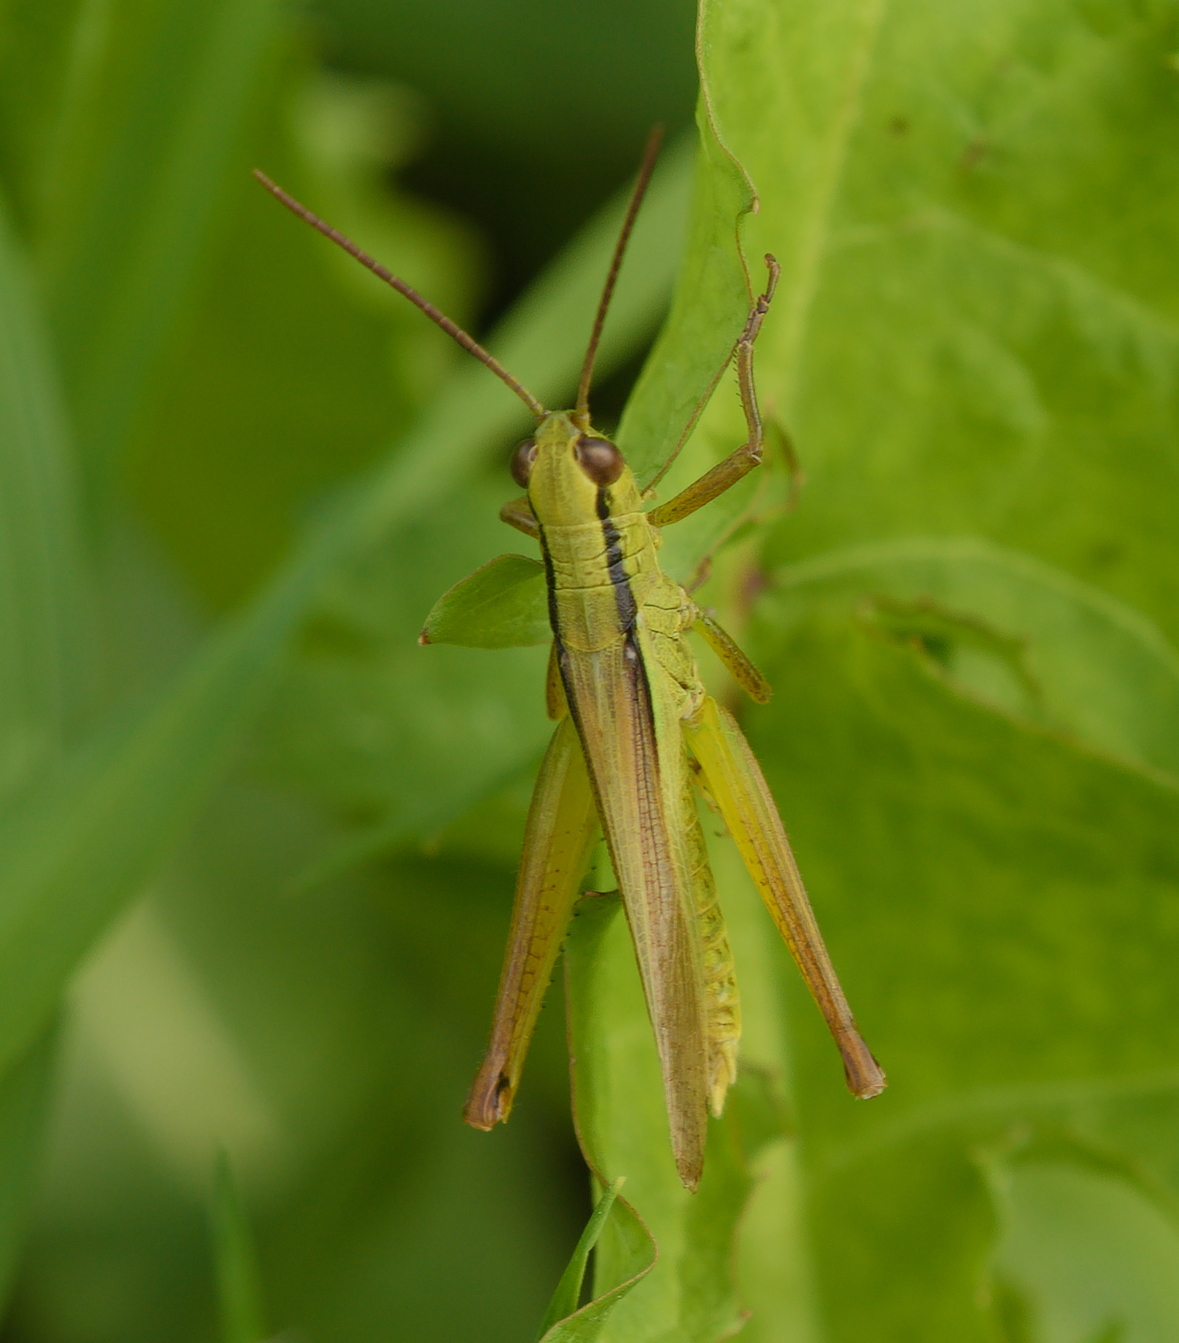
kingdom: Animalia
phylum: Arthropoda
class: Insecta
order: Orthoptera
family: Acrididae
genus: Mecostethus
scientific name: Mecostethus parapleurus
